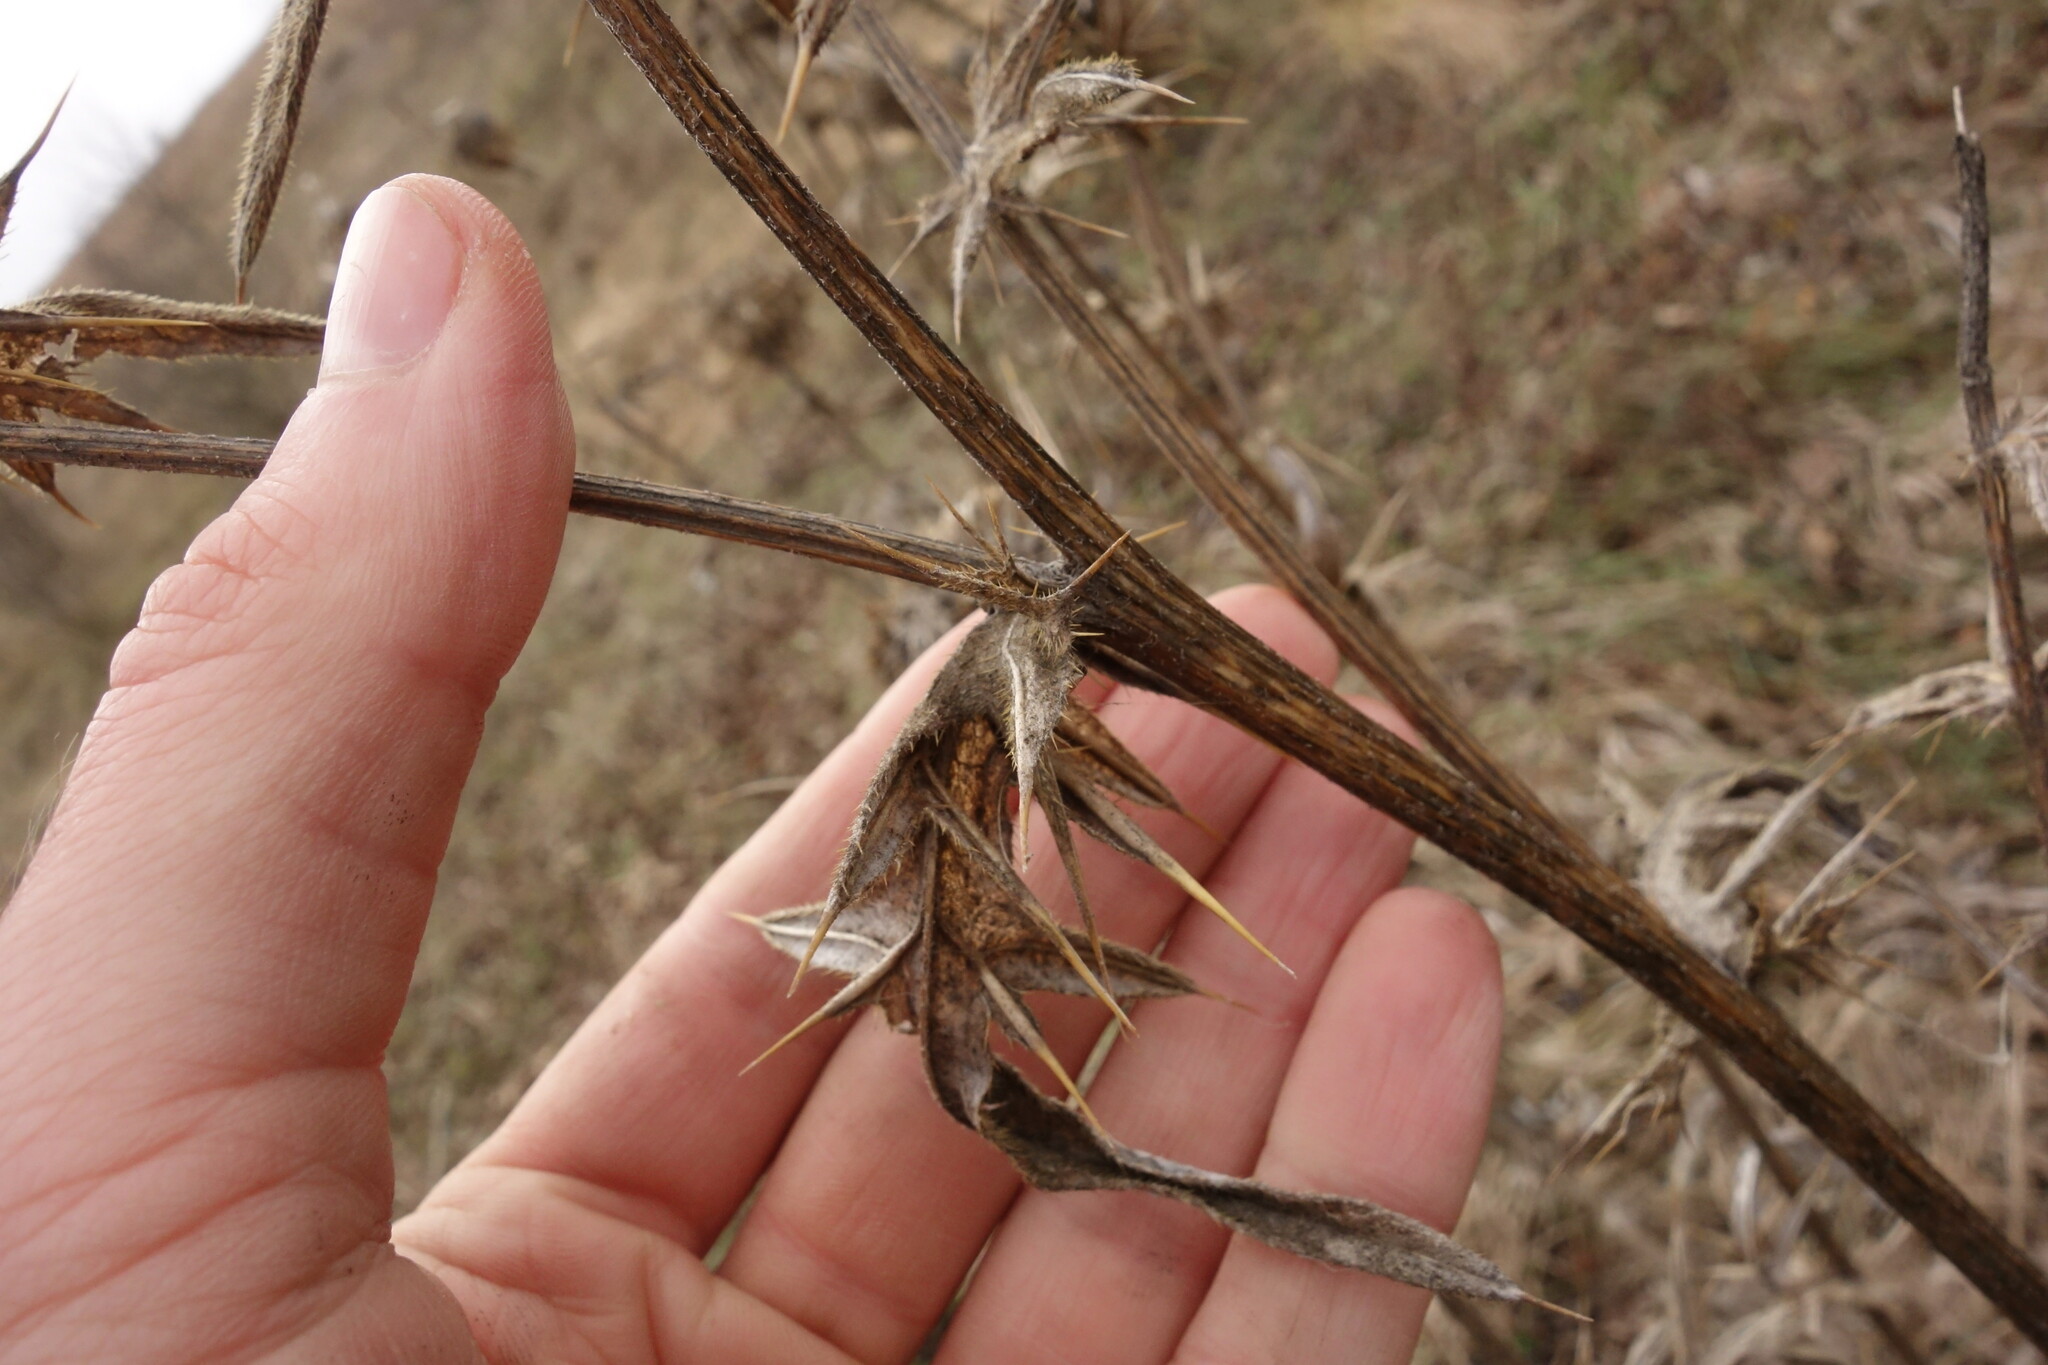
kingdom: Plantae
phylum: Tracheophyta
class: Magnoliopsida
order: Asterales
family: Asteraceae
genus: Lophiolepis
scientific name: Lophiolepis decussata
